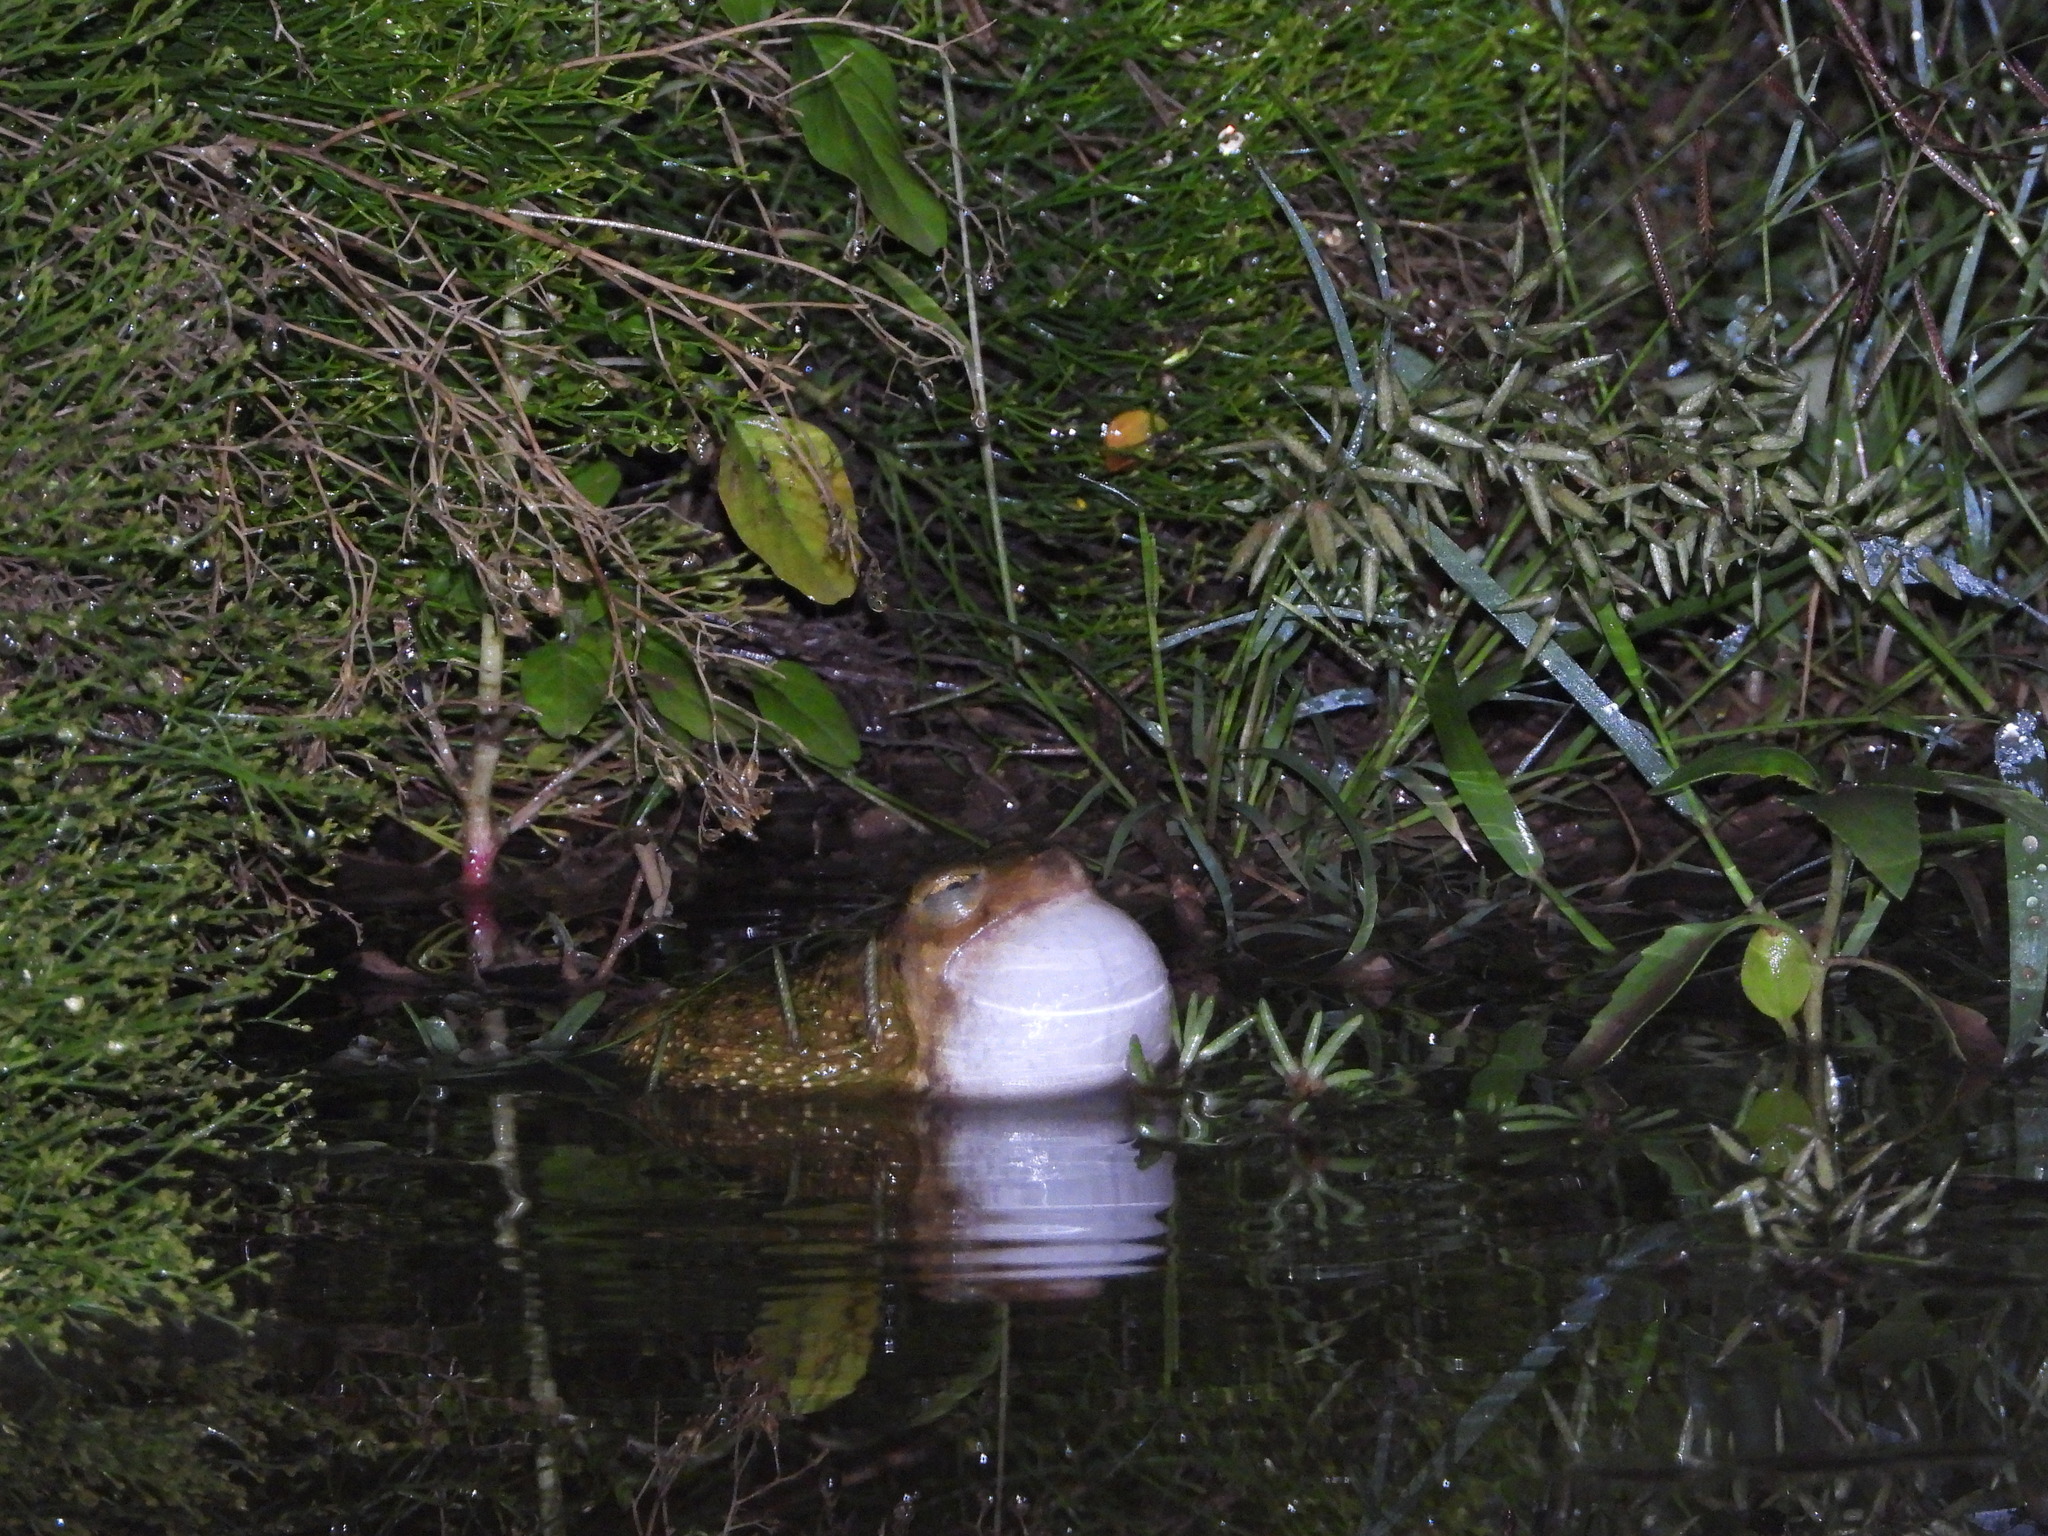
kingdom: Animalia
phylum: Chordata
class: Amphibia
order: Anura
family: Scaphiopodidae
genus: Scaphiopus
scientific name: Scaphiopus couchii
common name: Couch's spadefoot toad
